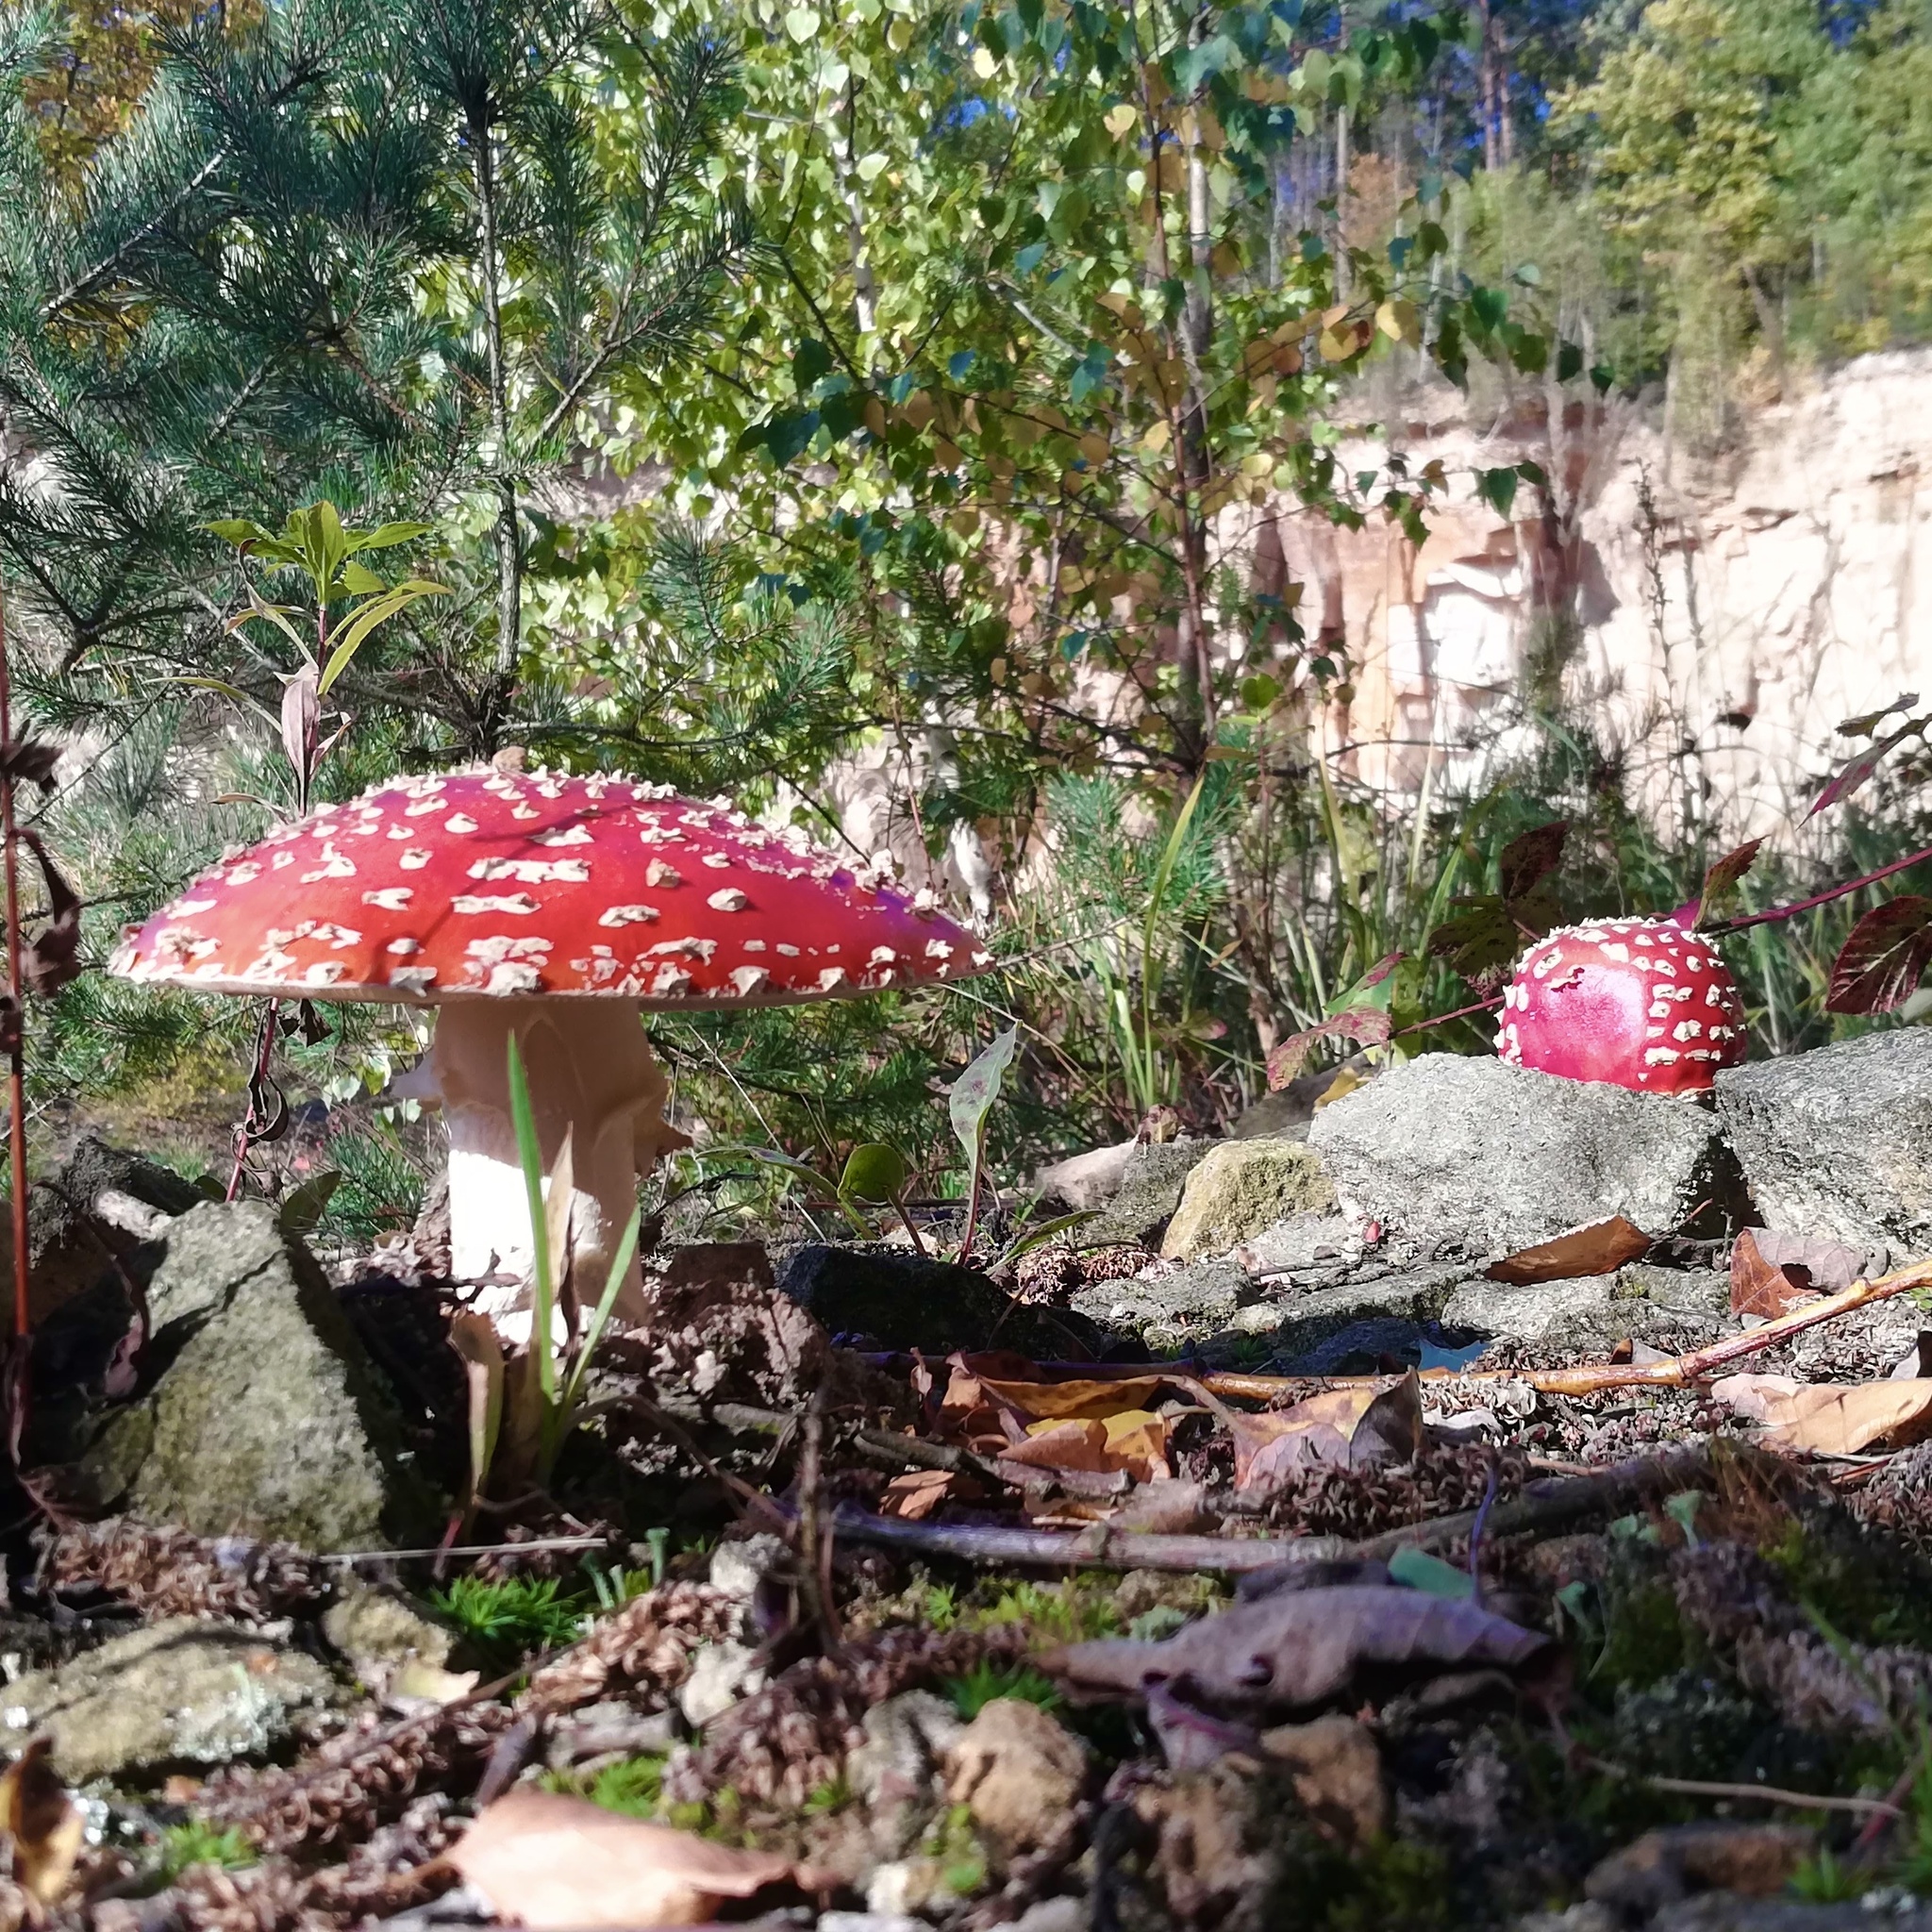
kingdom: Fungi
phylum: Basidiomycota
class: Agaricomycetes
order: Agaricales
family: Amanitaceae
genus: Amanita
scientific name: Amanita muscaria
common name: Fly agaric
